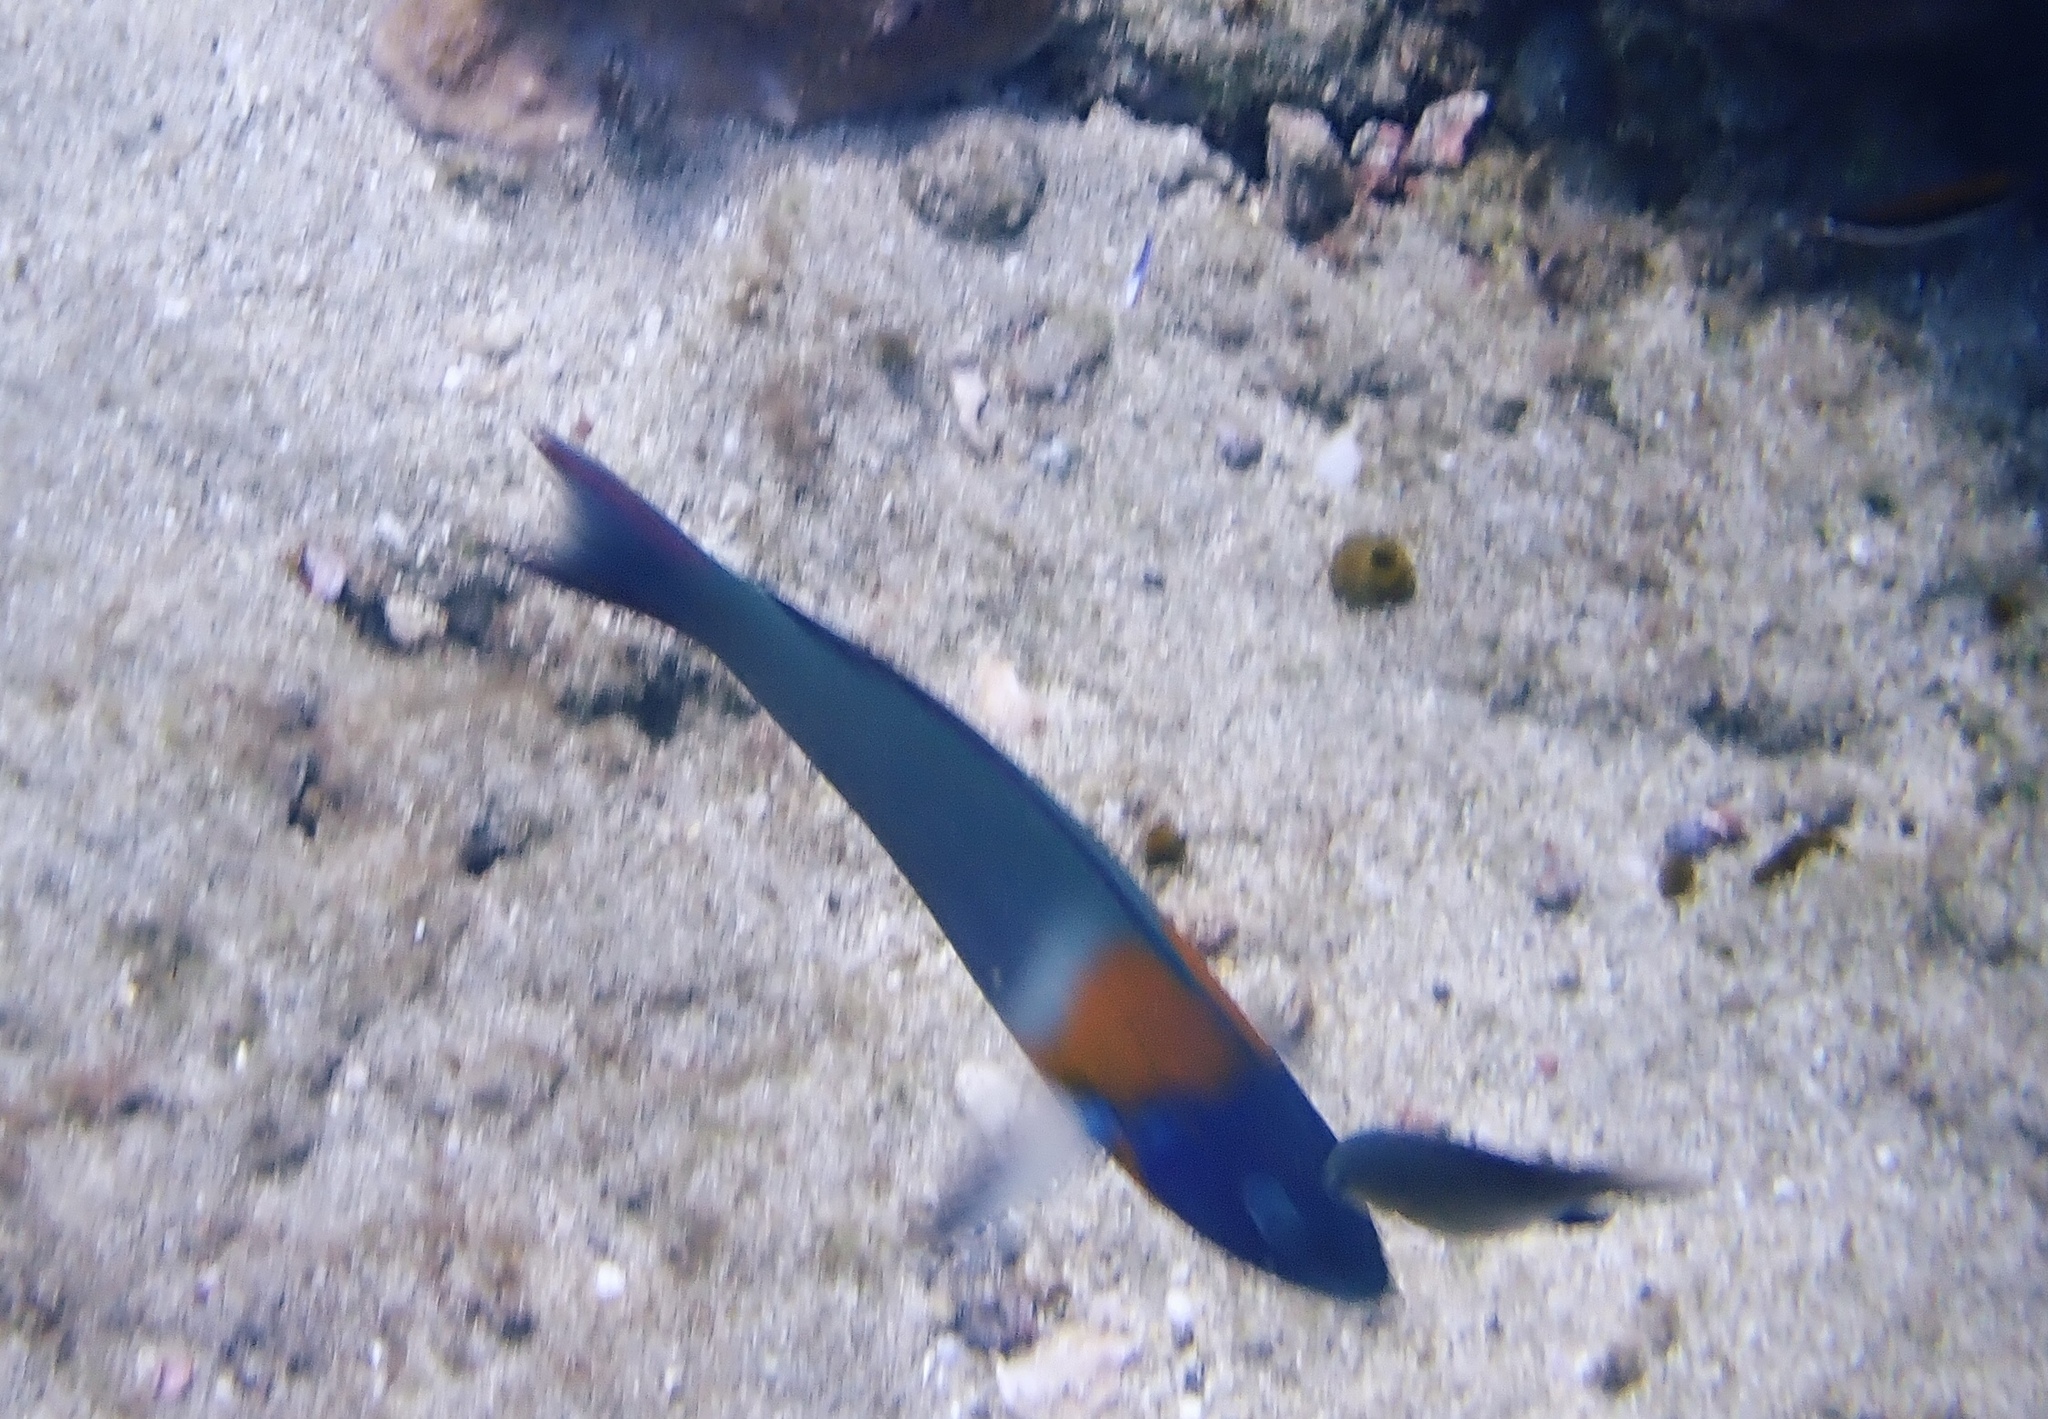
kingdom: Animalia
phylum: Chordata
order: Perciformes
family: Labridae
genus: Thalassoma
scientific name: Thalassoma duperrey
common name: Saddle wrasse
